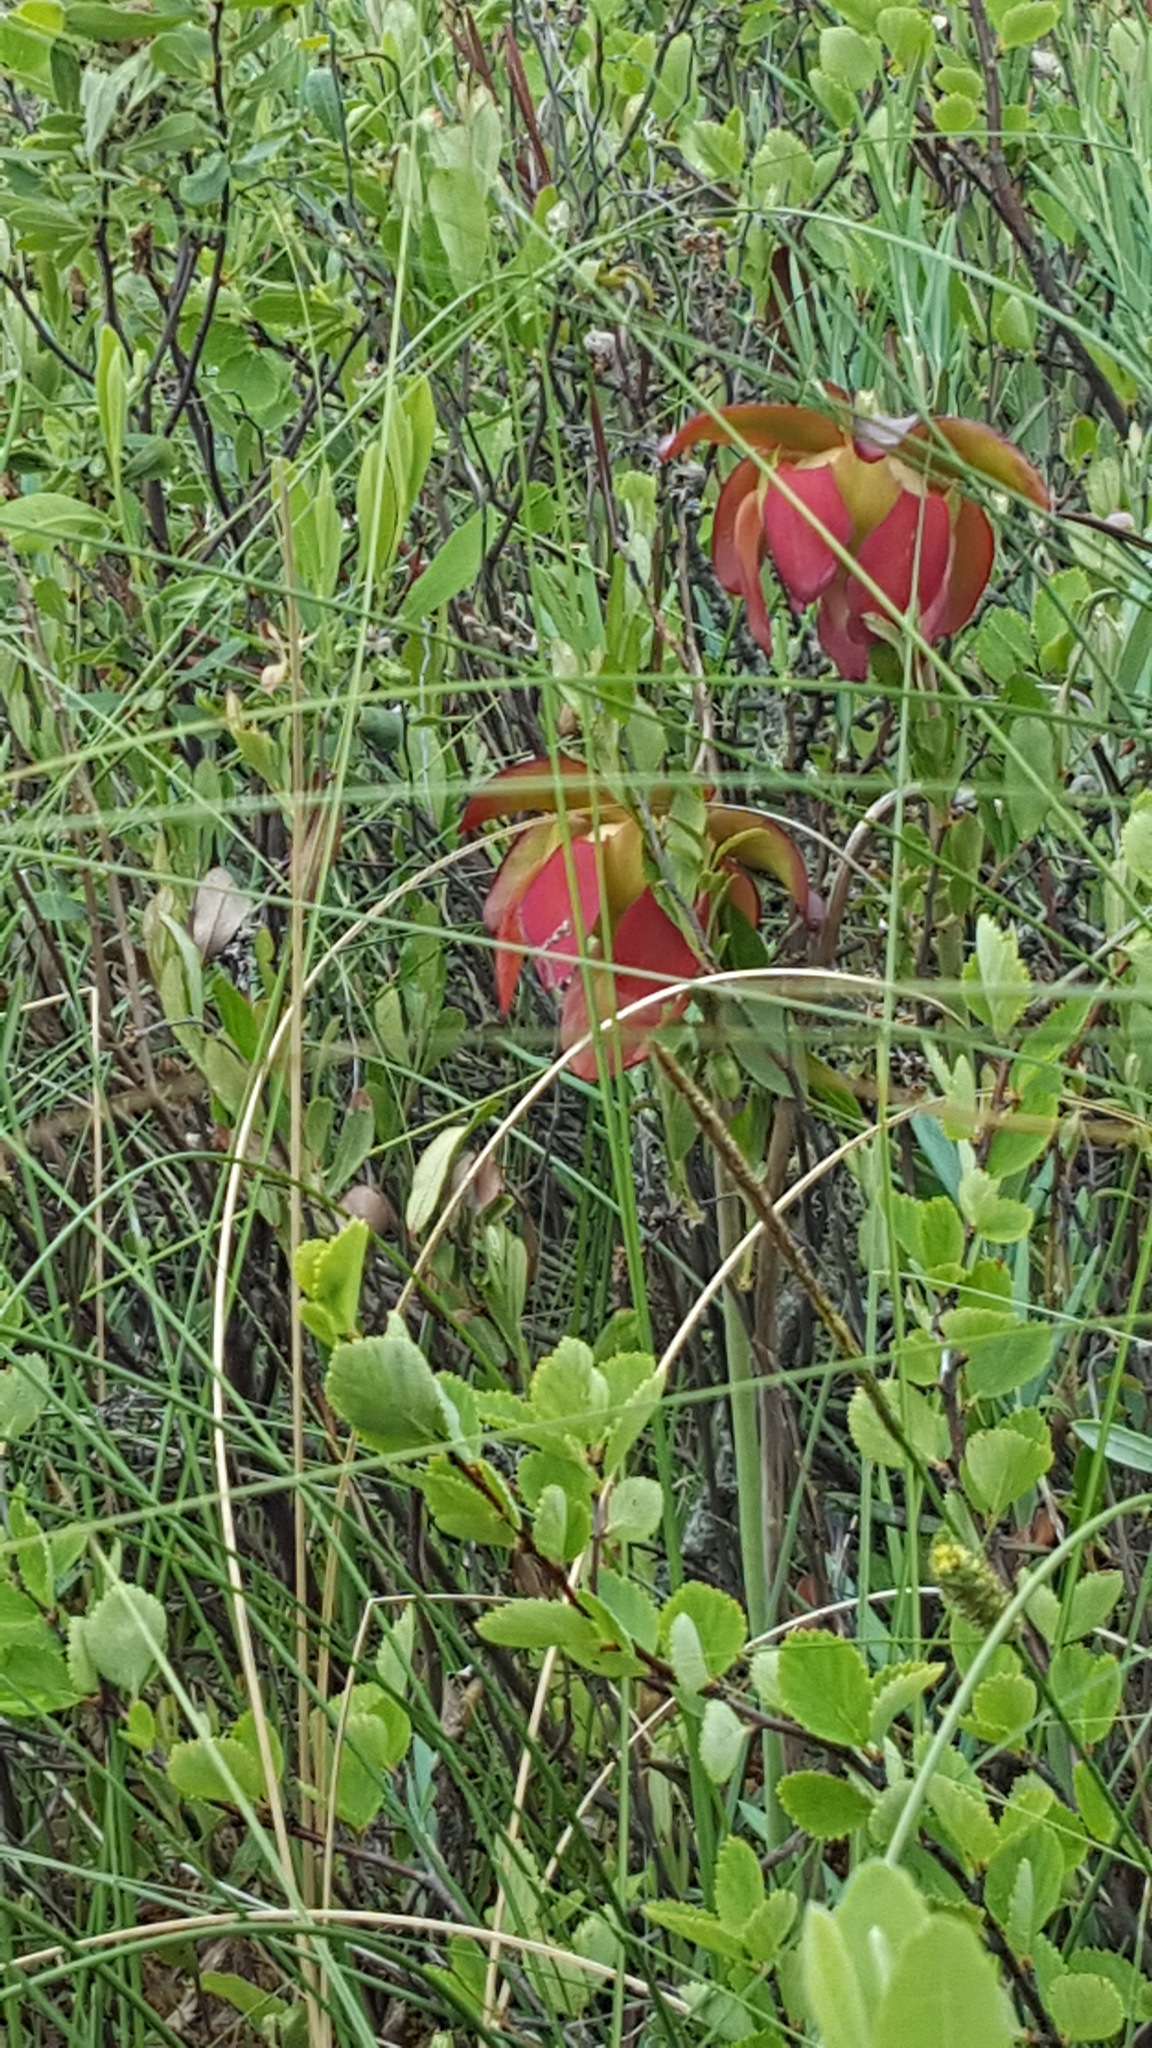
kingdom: Plantae
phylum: Tracheophyta
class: Magnoliopsida
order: Ericales
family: Sarraceniaceae
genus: Sarracenia
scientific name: Sarracenia purpurea
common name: Pitcherplant
